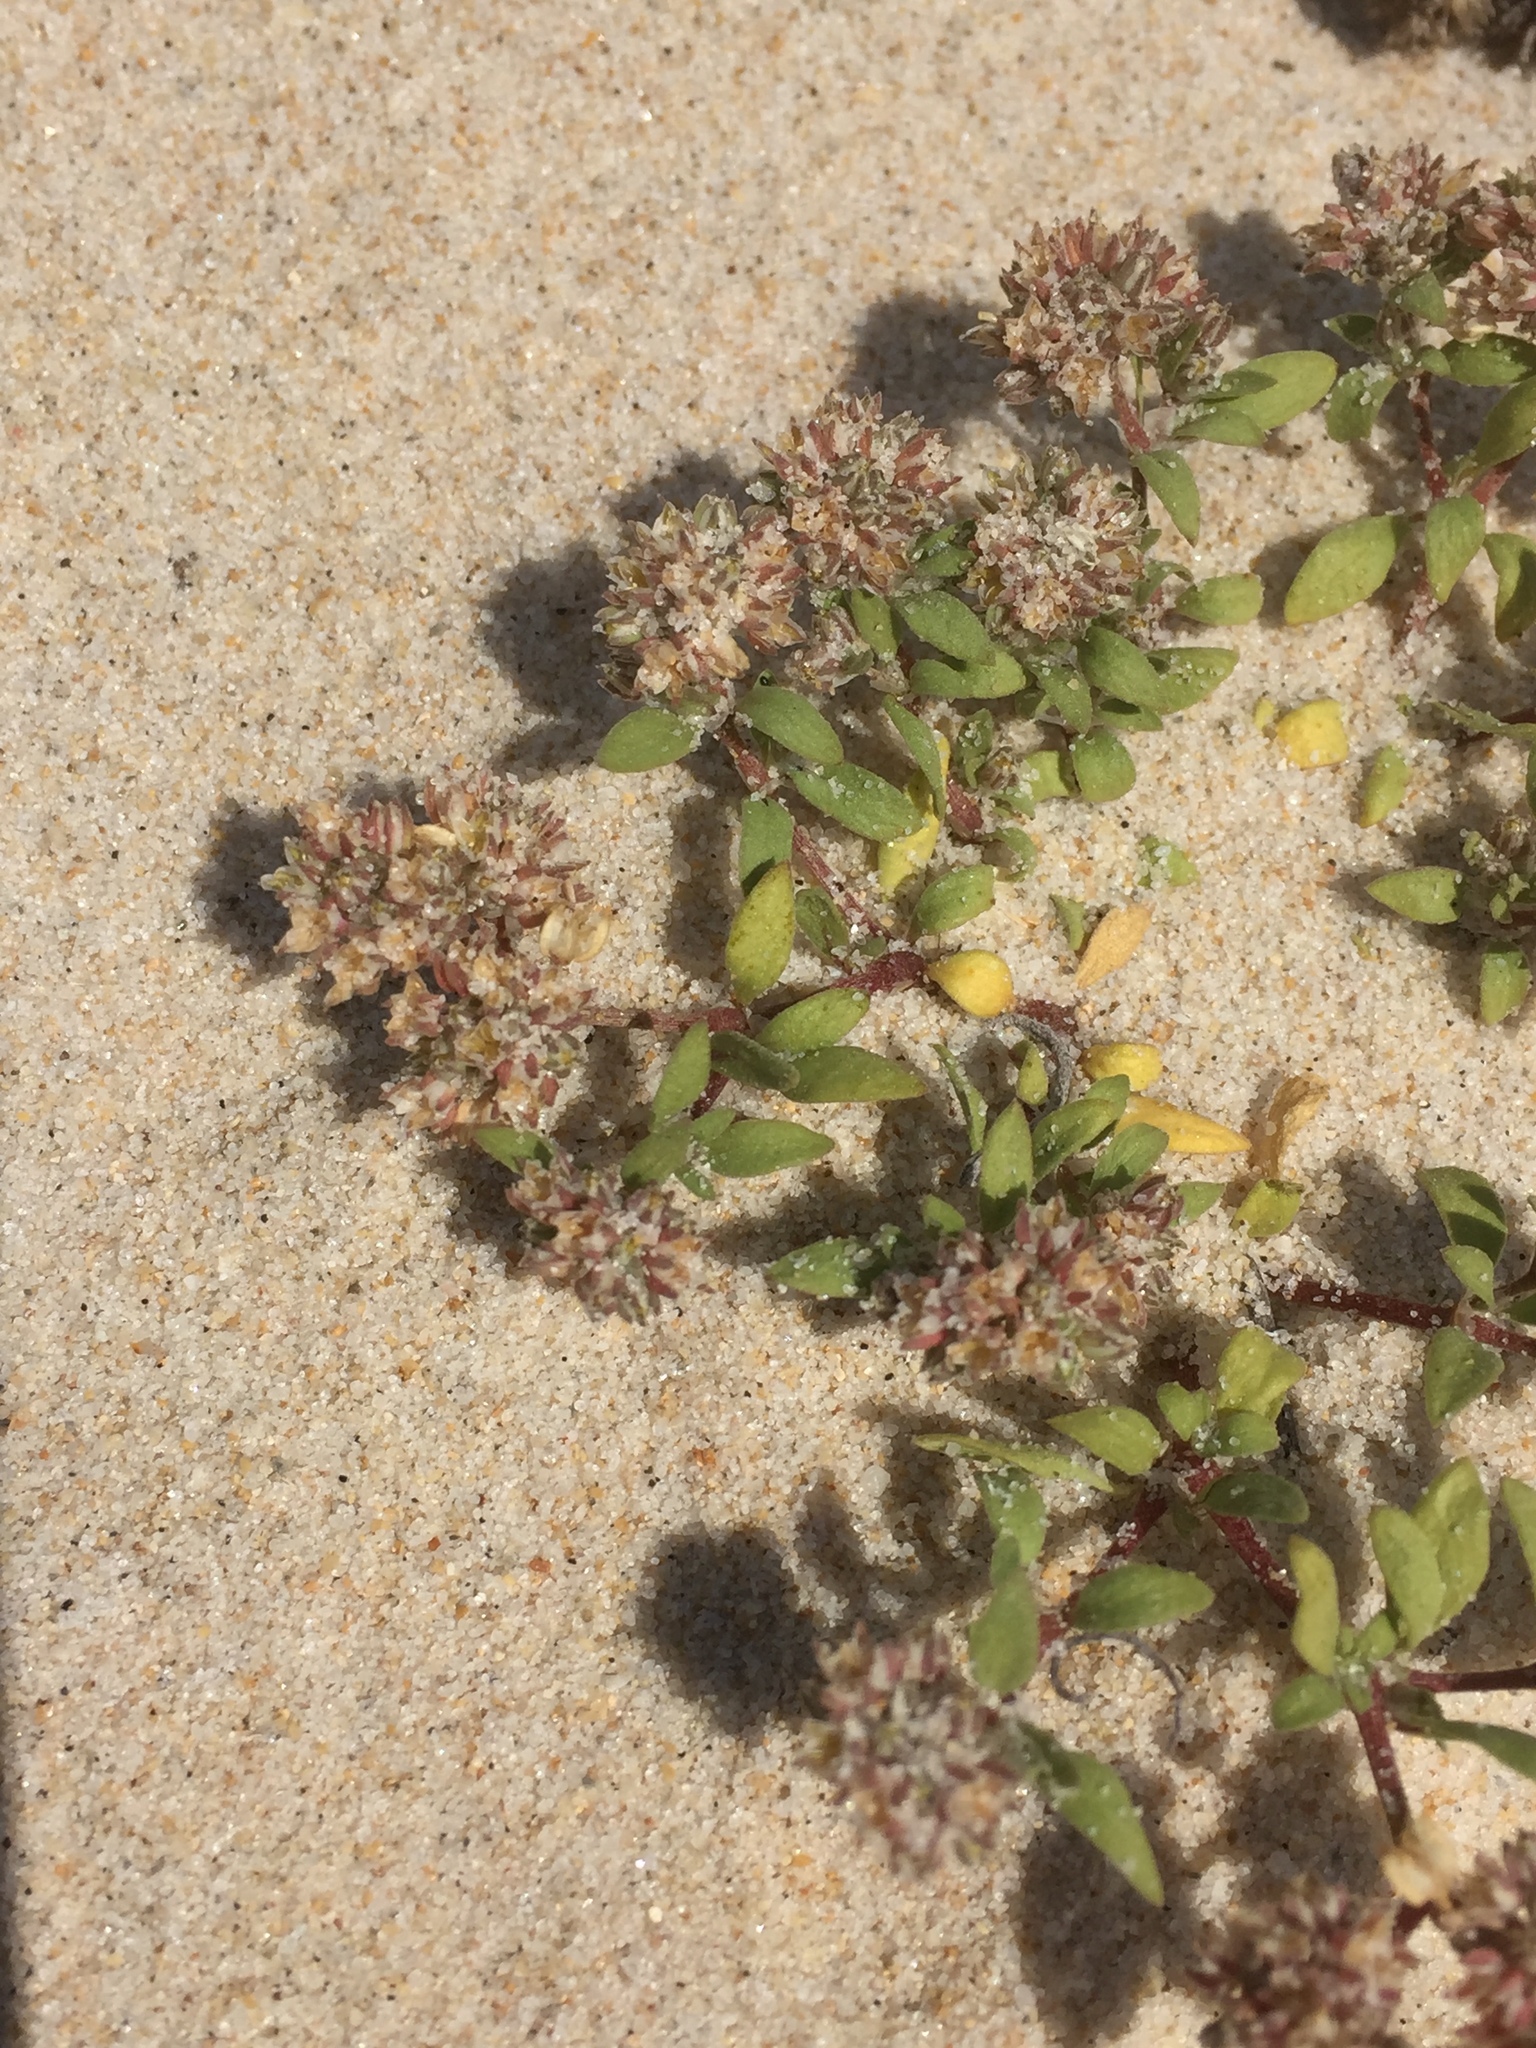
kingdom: Plantae
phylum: Tracheophyta
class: Magnoliopsida
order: Caryophyllales
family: Caryophyllaceae
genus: Polycarpon
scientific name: Polycarpon alsinifolium
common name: Fourleaf manyseed
